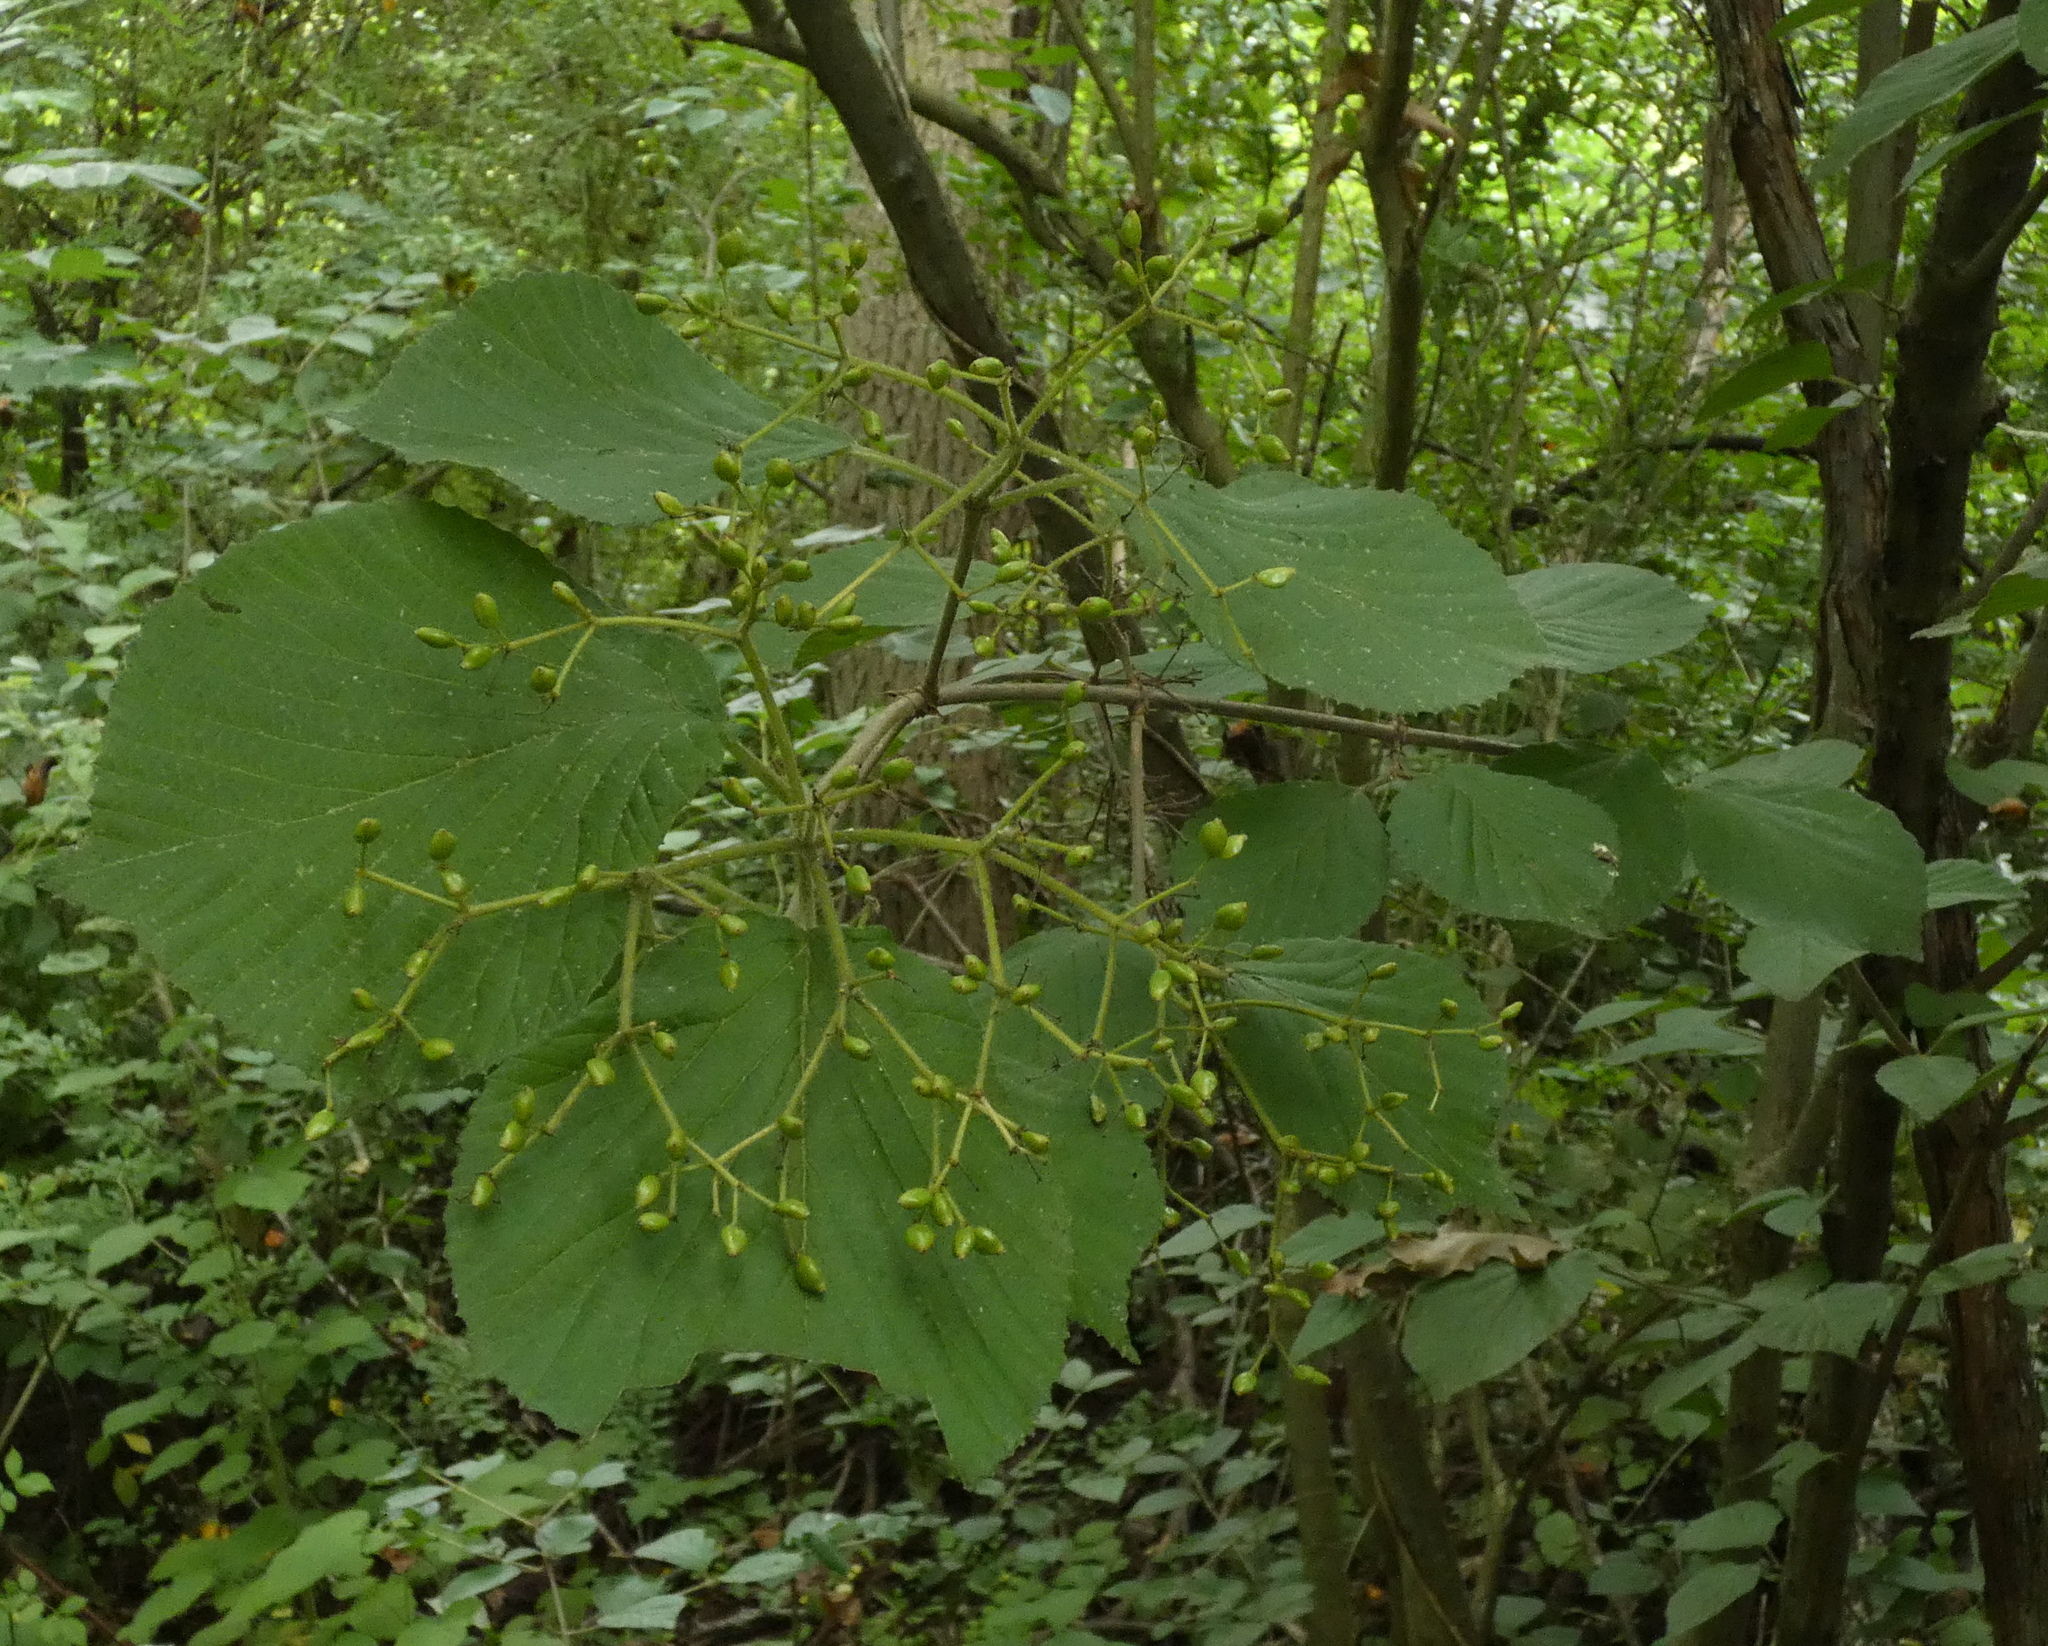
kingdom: Plantae
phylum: Tracheophyta
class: Magnoliopsida
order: Dipsacales
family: Viburnaceae
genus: Viburnum
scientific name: Viburnum dilatatum
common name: Linden arrowwood
